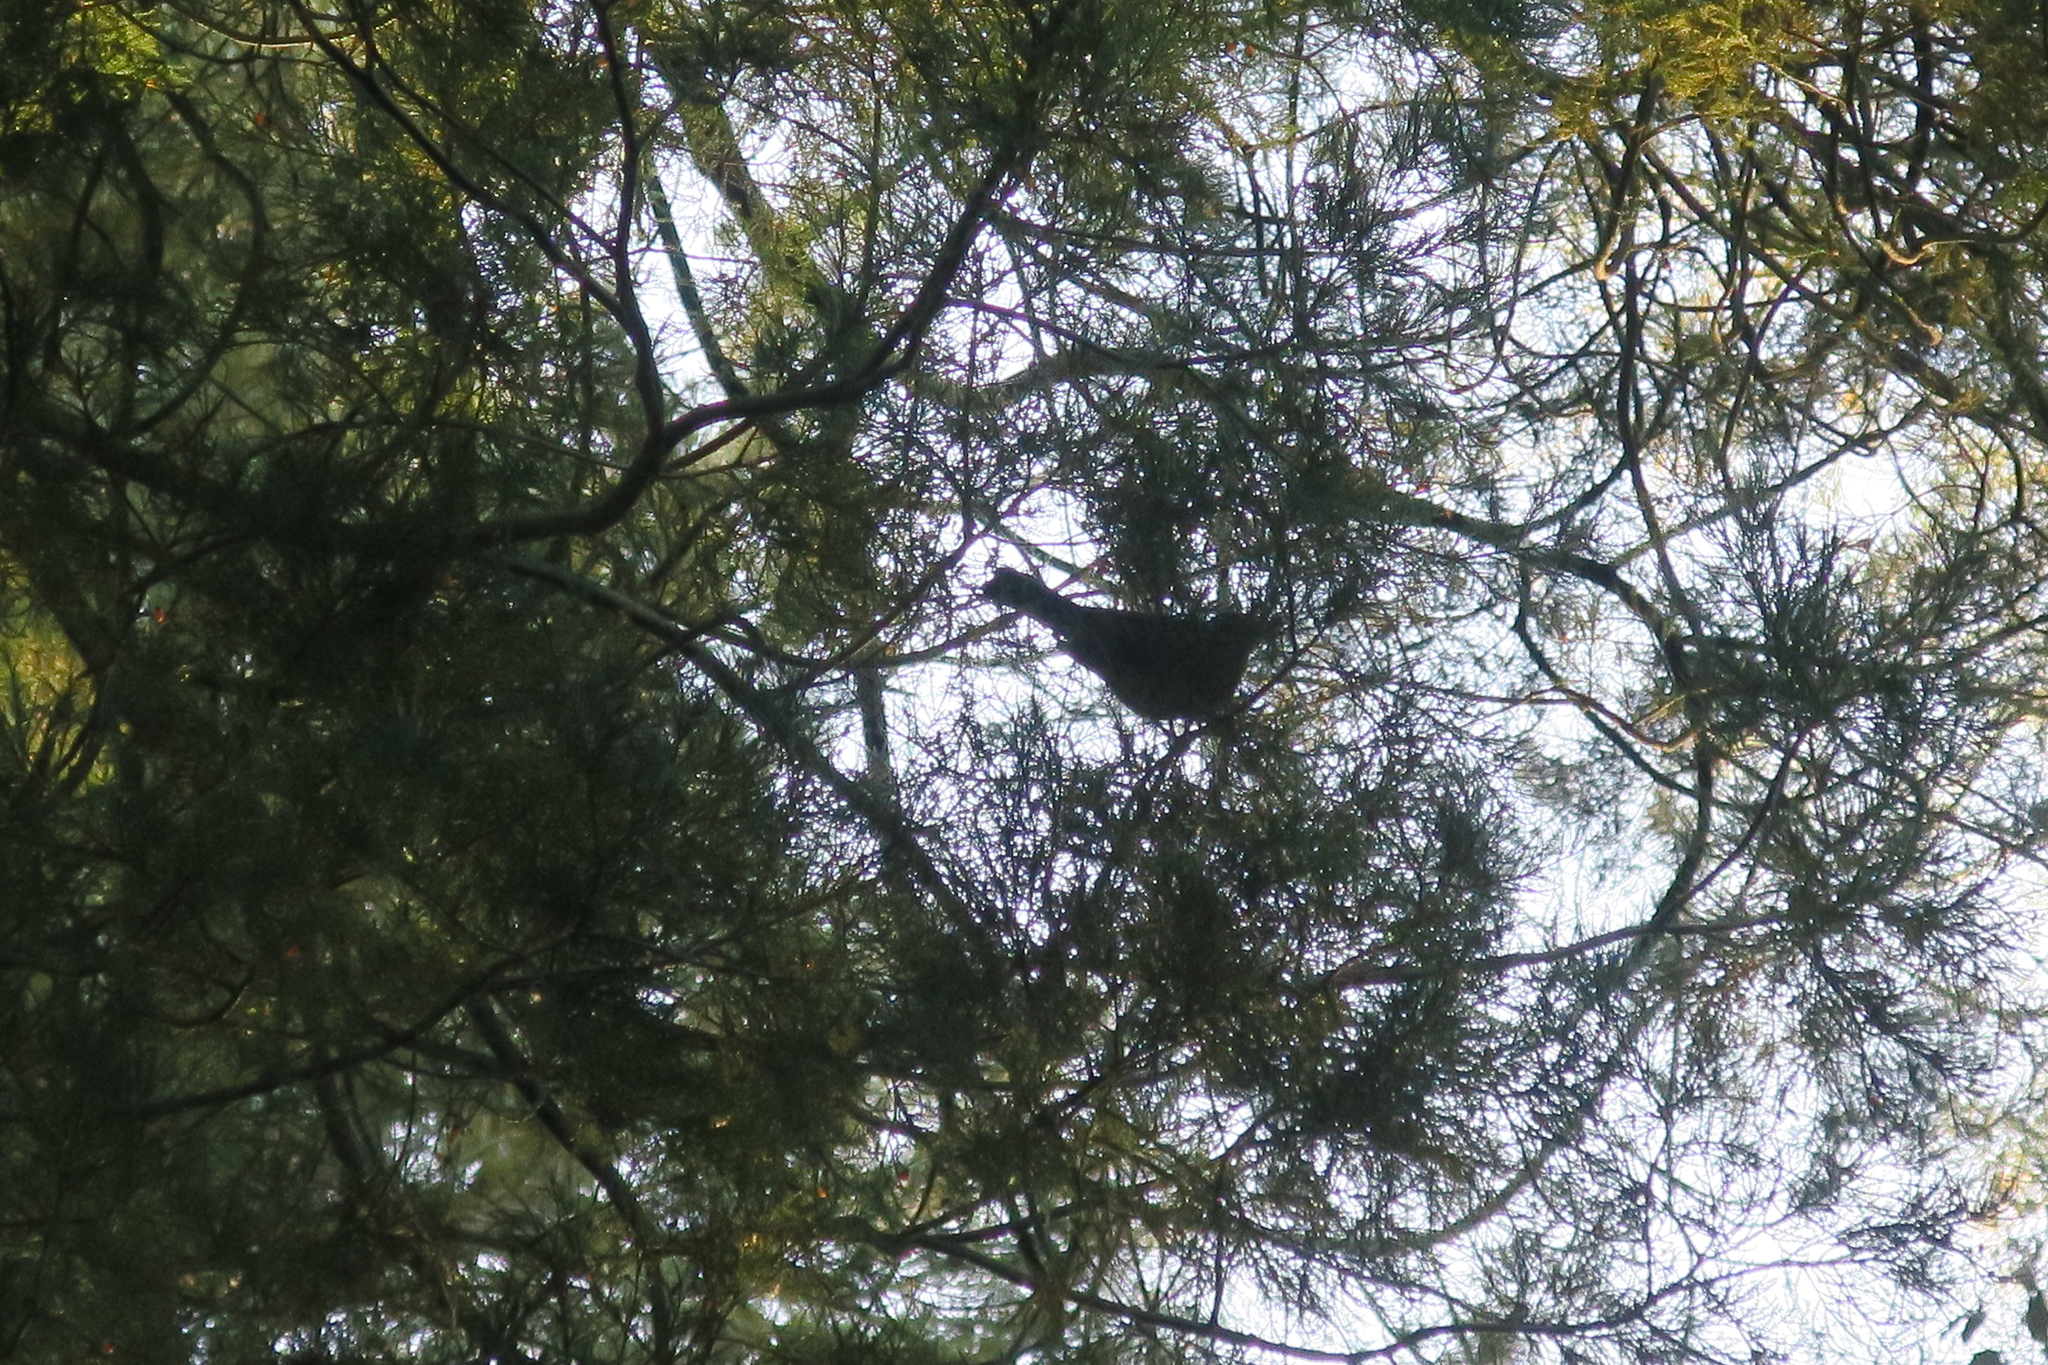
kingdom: Animalia
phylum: Chordata
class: Aves
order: Passeriformes
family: Turdidae
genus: Turdus
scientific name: Turdus merula
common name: Common blackbird
